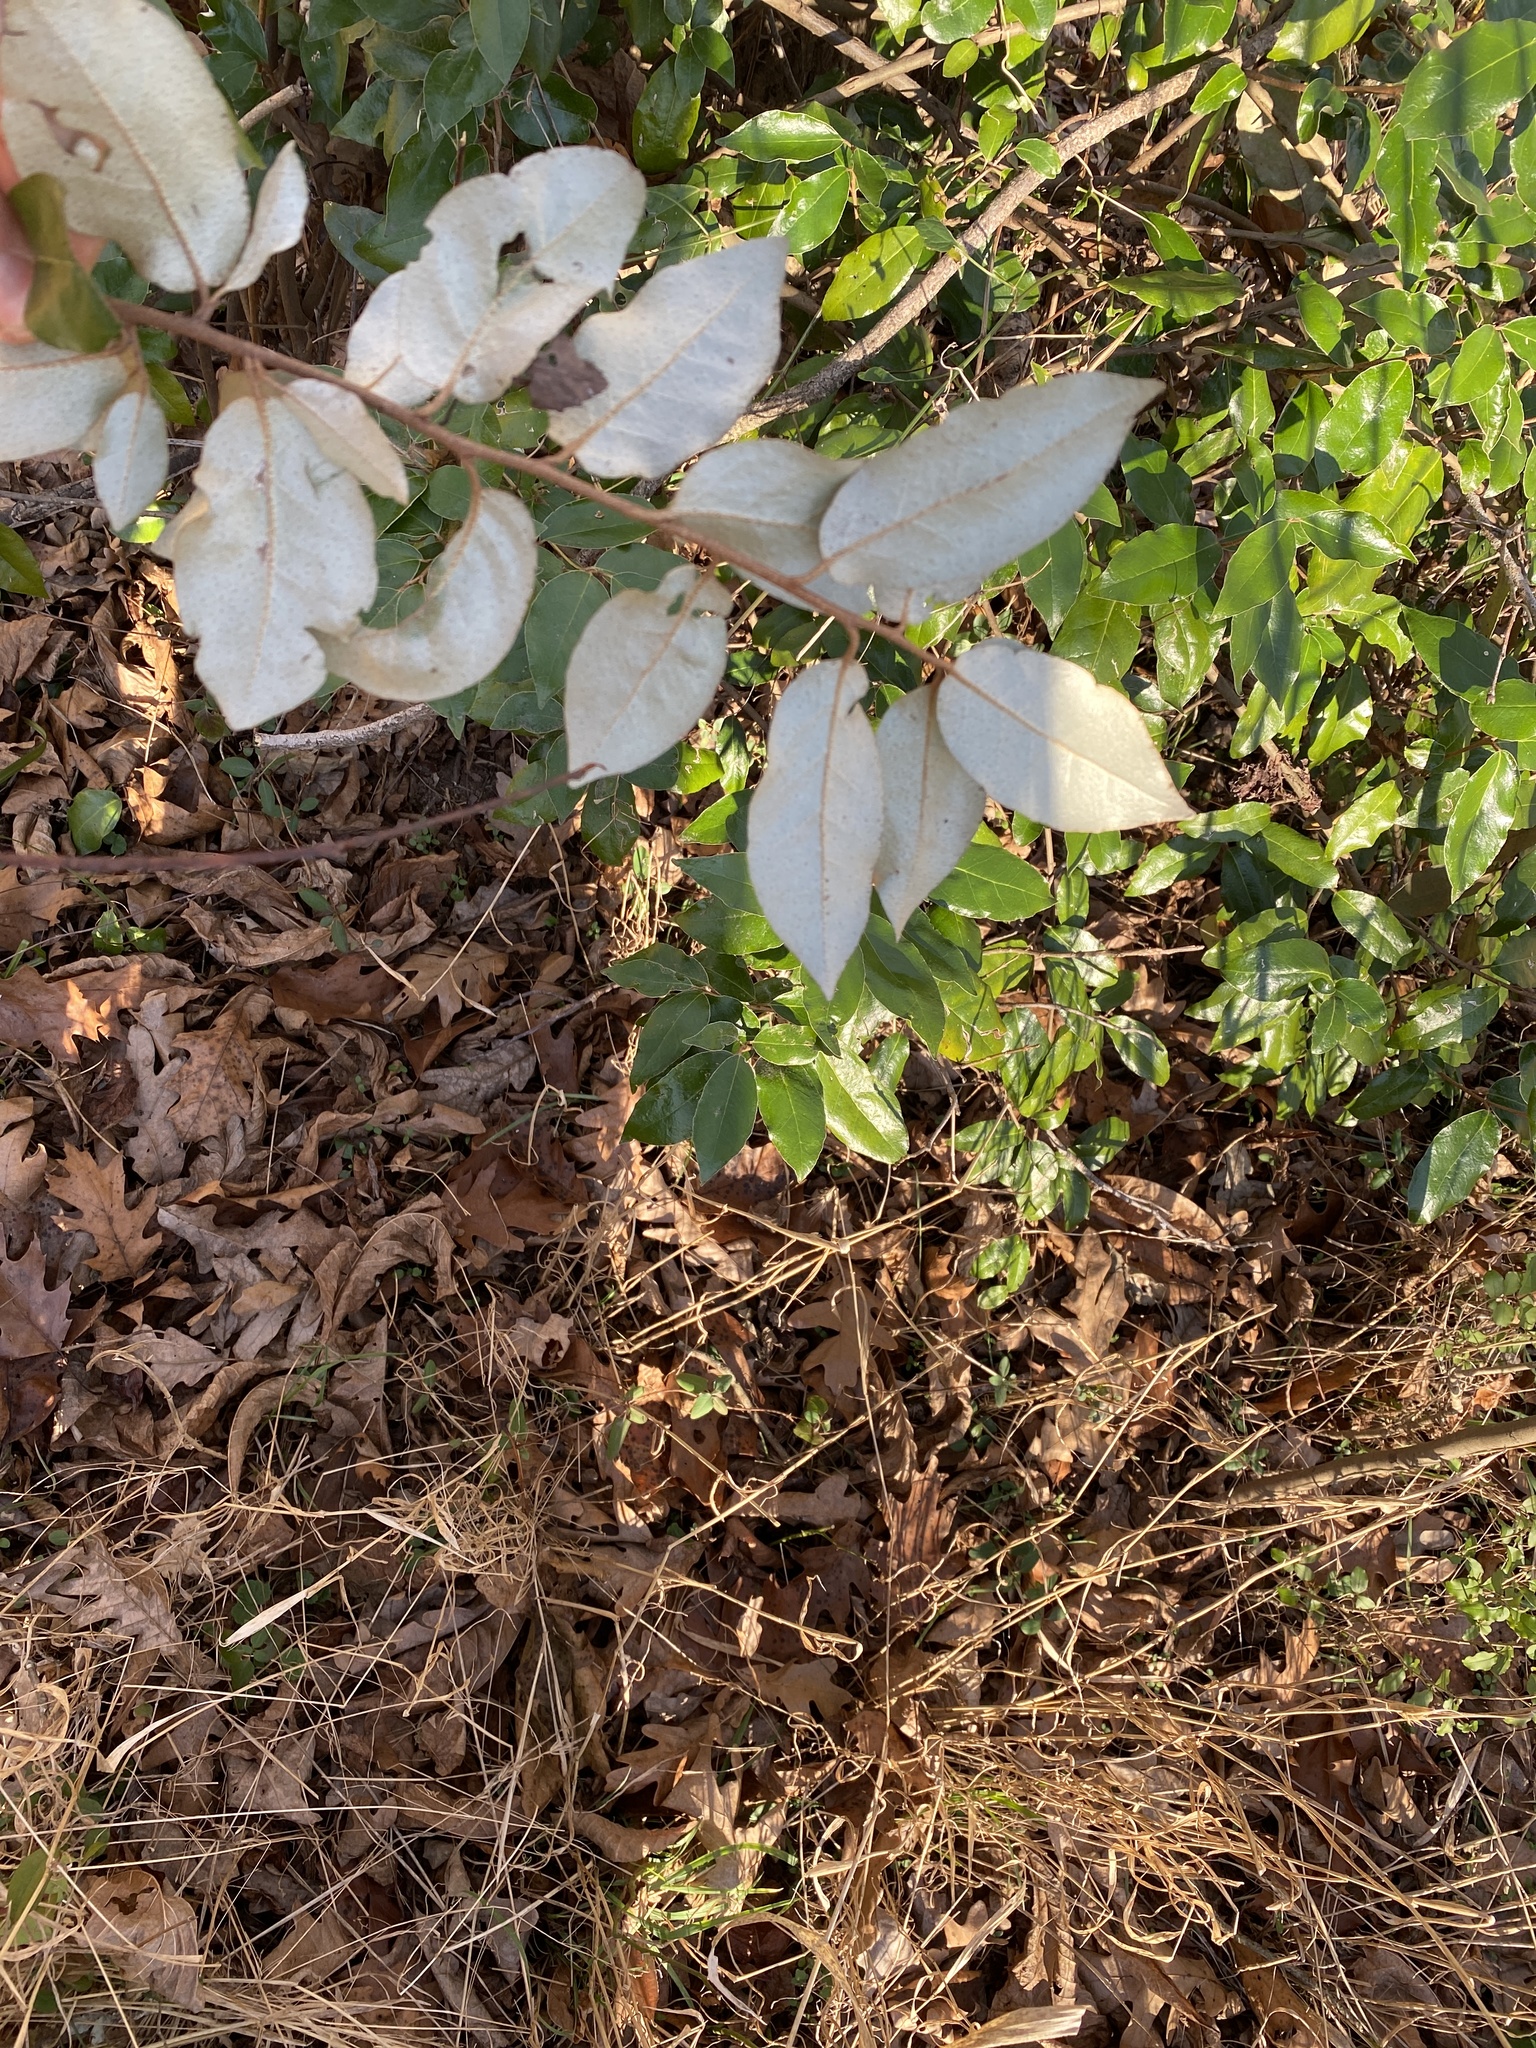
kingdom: Plantae
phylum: Tracheophyta
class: Magnoliopsida
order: Rosales
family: Elaeagnaceae
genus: Elaeagnus
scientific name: Elaeagnus pungens
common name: Spiny oleaster
